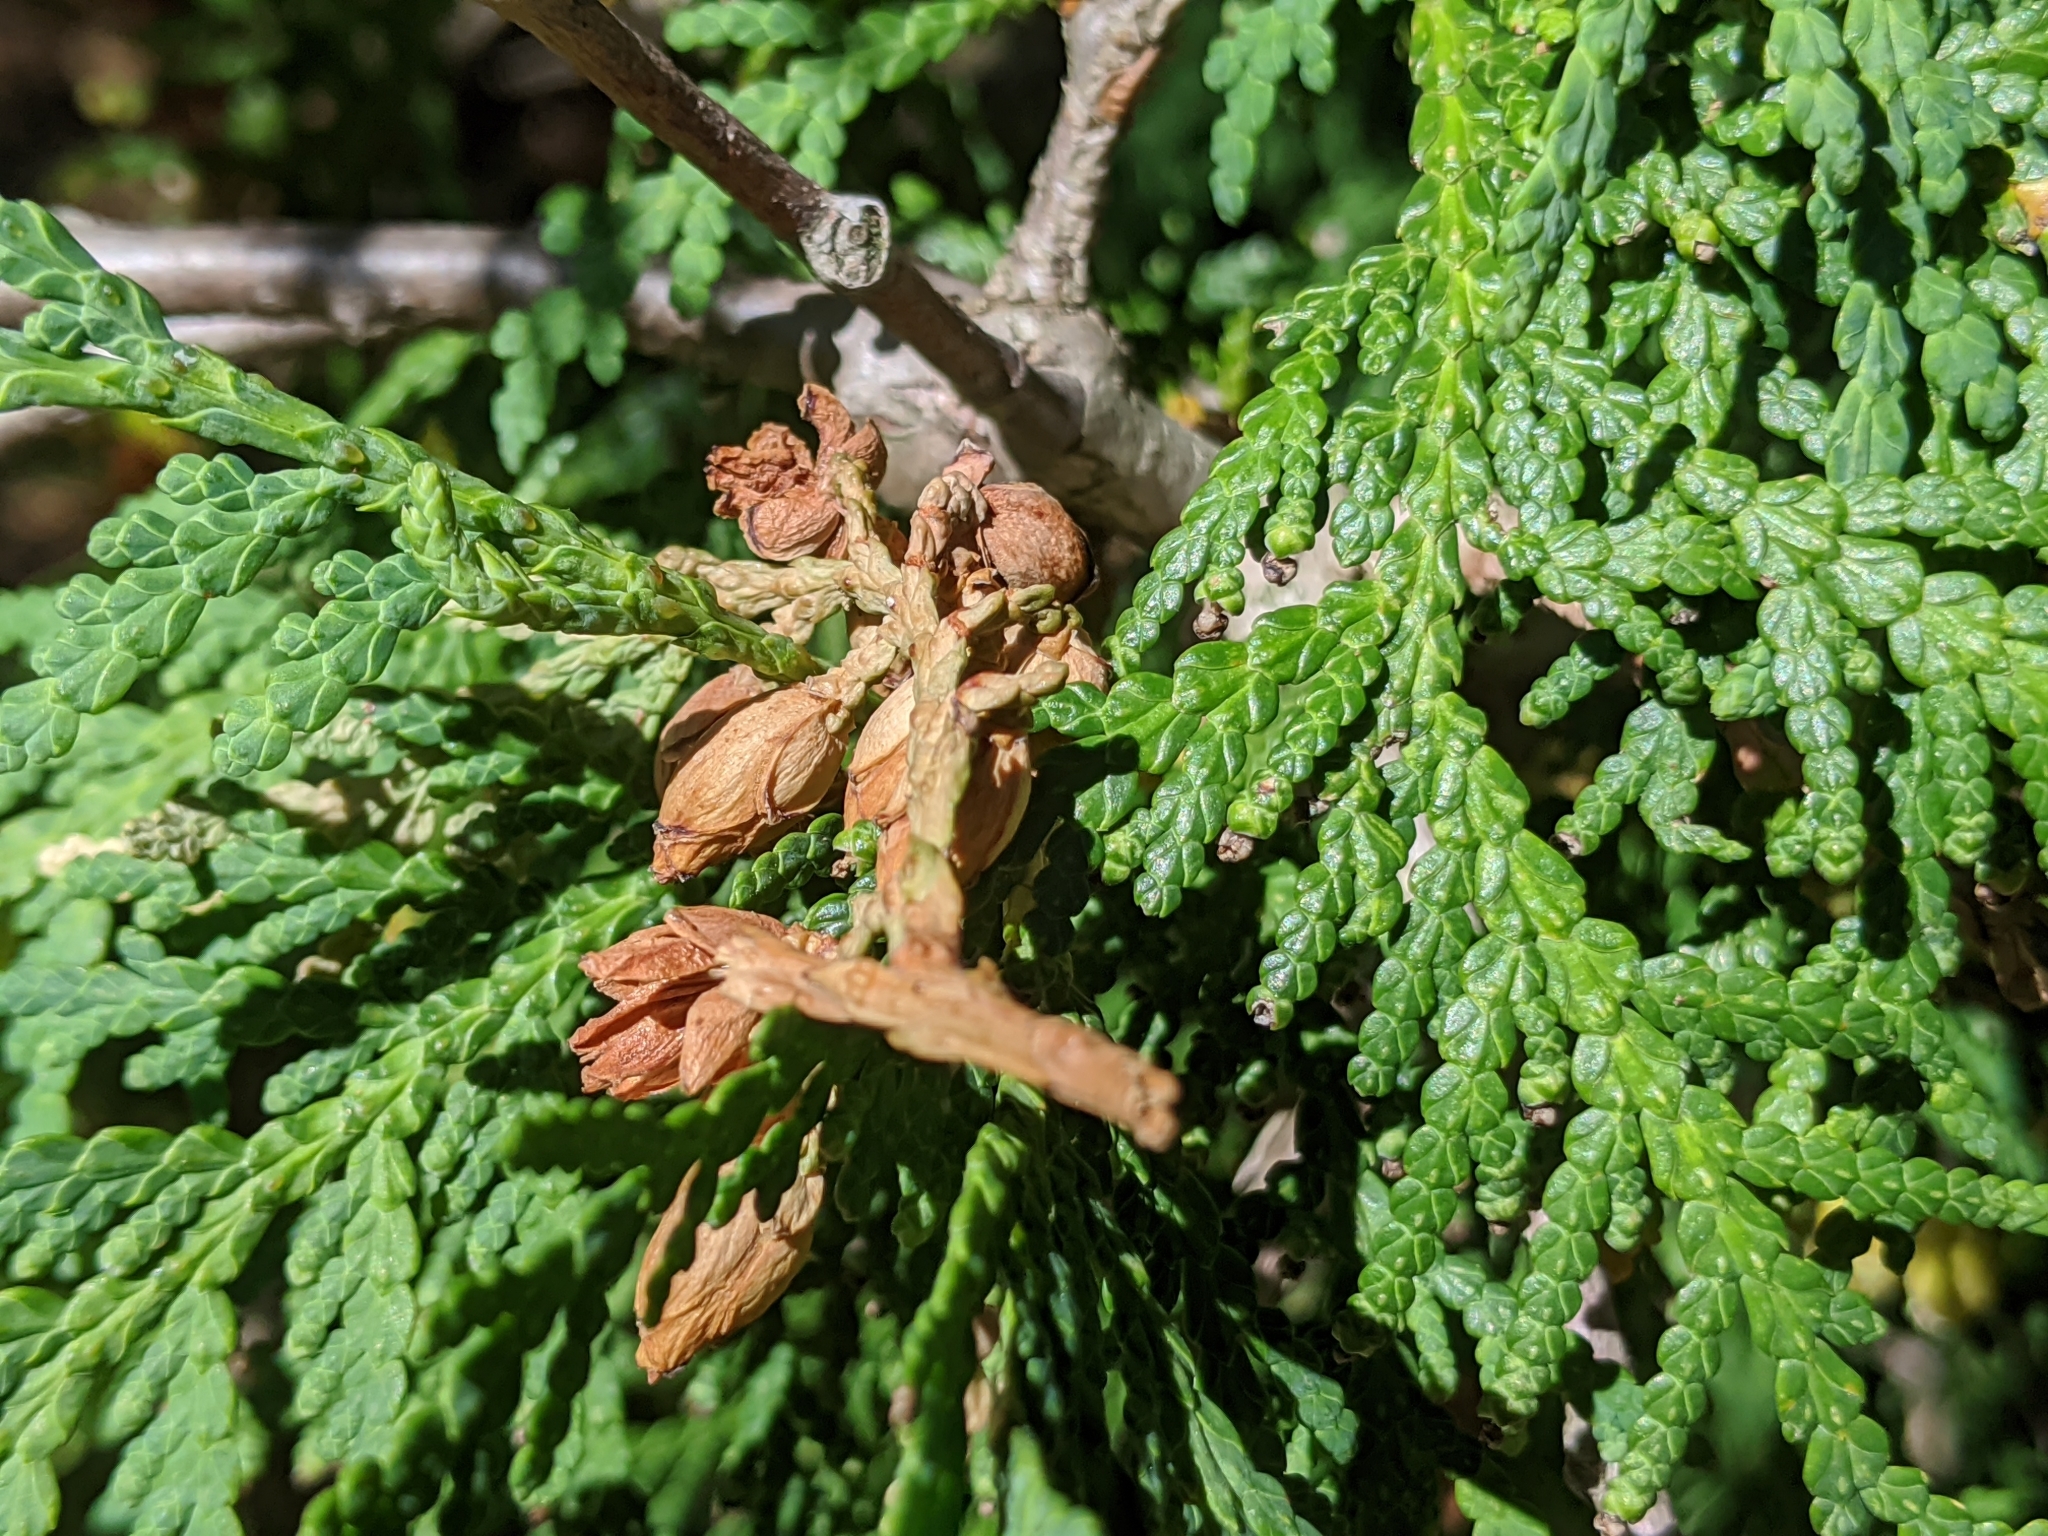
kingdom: Plantae
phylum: Tracheophyta
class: Pinopsida
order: Pinales
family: Cupressaceae
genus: Thuja
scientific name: Thuja occidentalis
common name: Northern white-cedar
